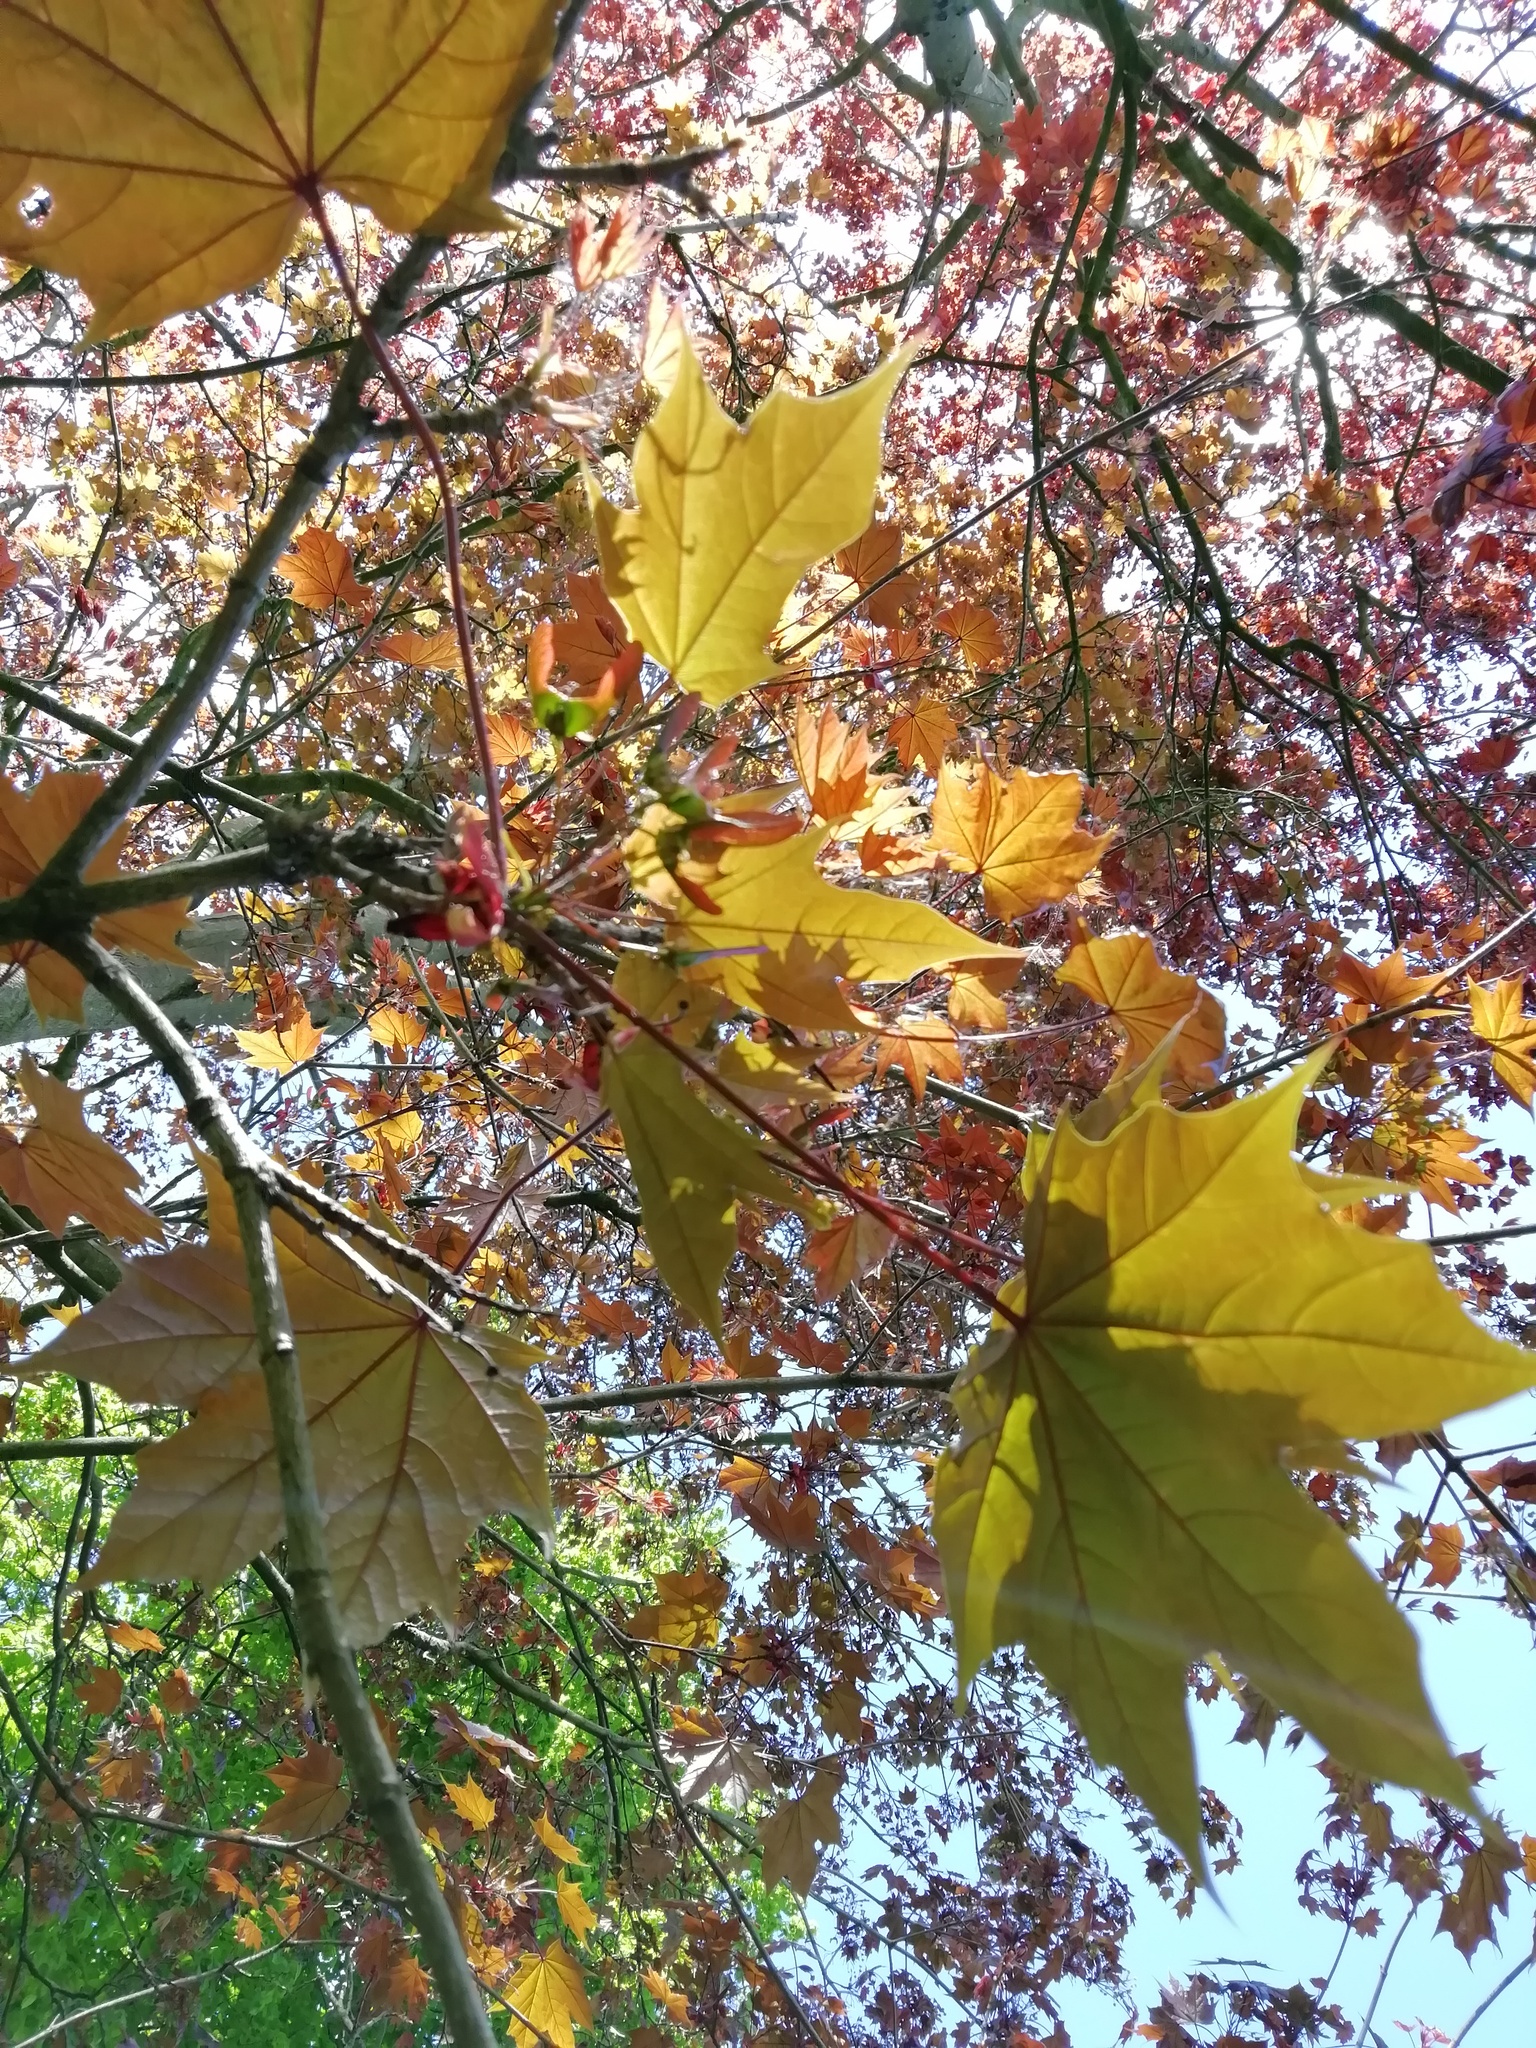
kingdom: Plantae
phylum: Tracheophyta
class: Magnoliopsida
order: Sapindales
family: Sapindaceae
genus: Acer
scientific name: Acer platanoides
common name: Norway maple
